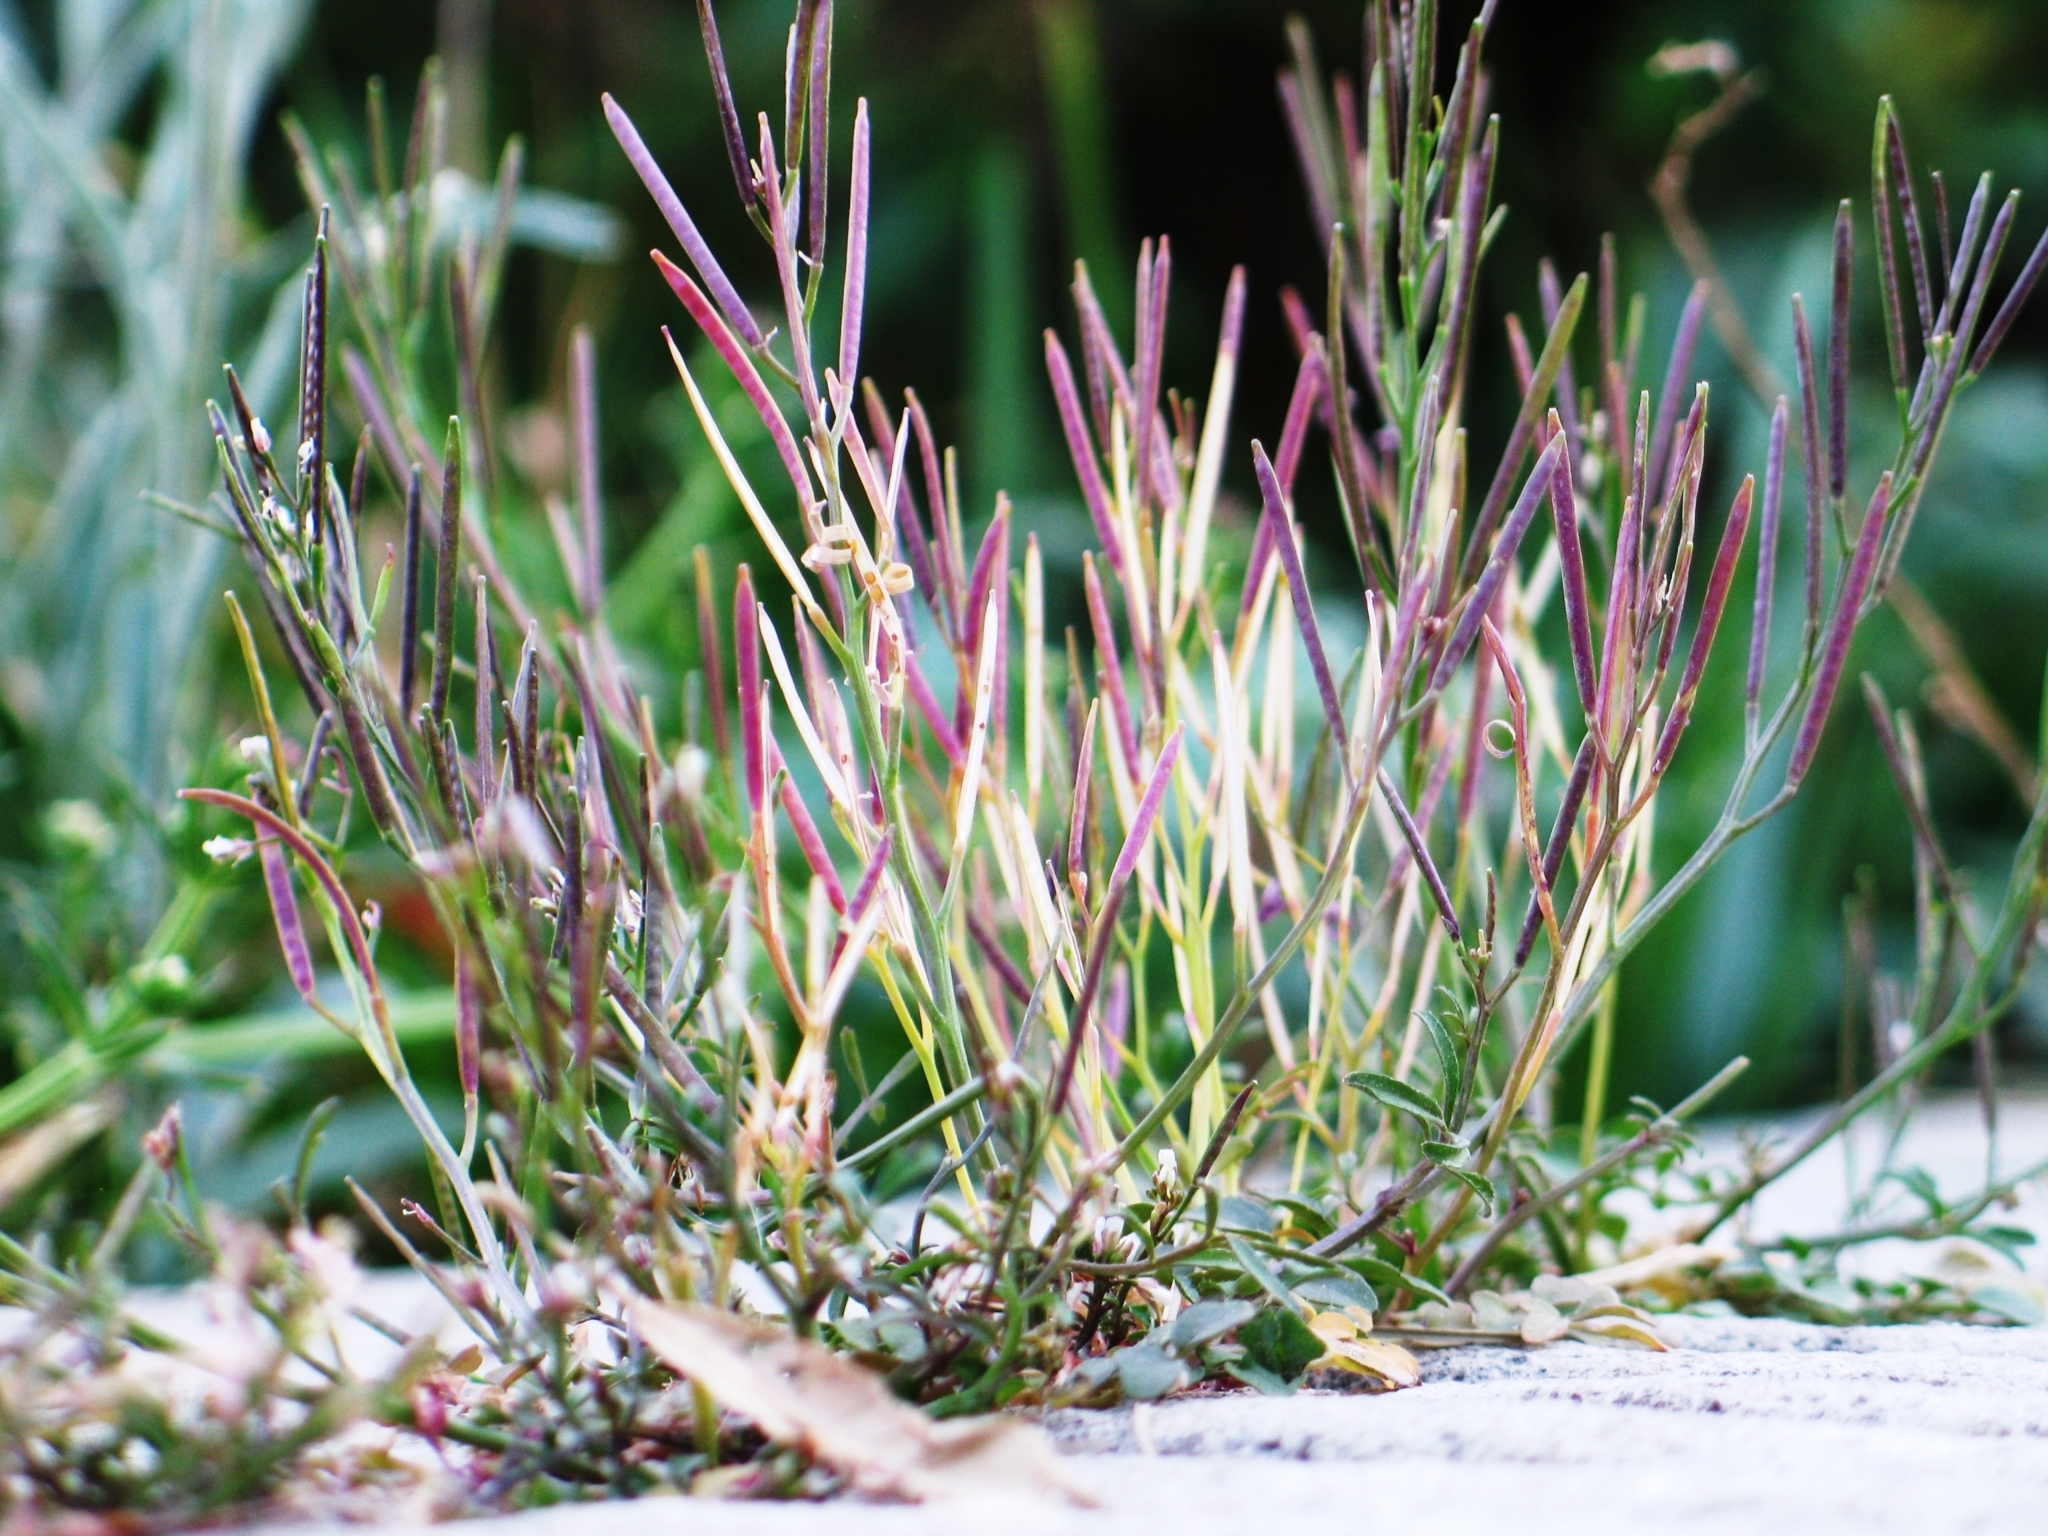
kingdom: Plantae
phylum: Tracheophyta
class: Magnoliopsida
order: Brassicales
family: Brassicaceae
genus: Cardamine
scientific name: Cardamine hirsuta
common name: Hairy bittercress
